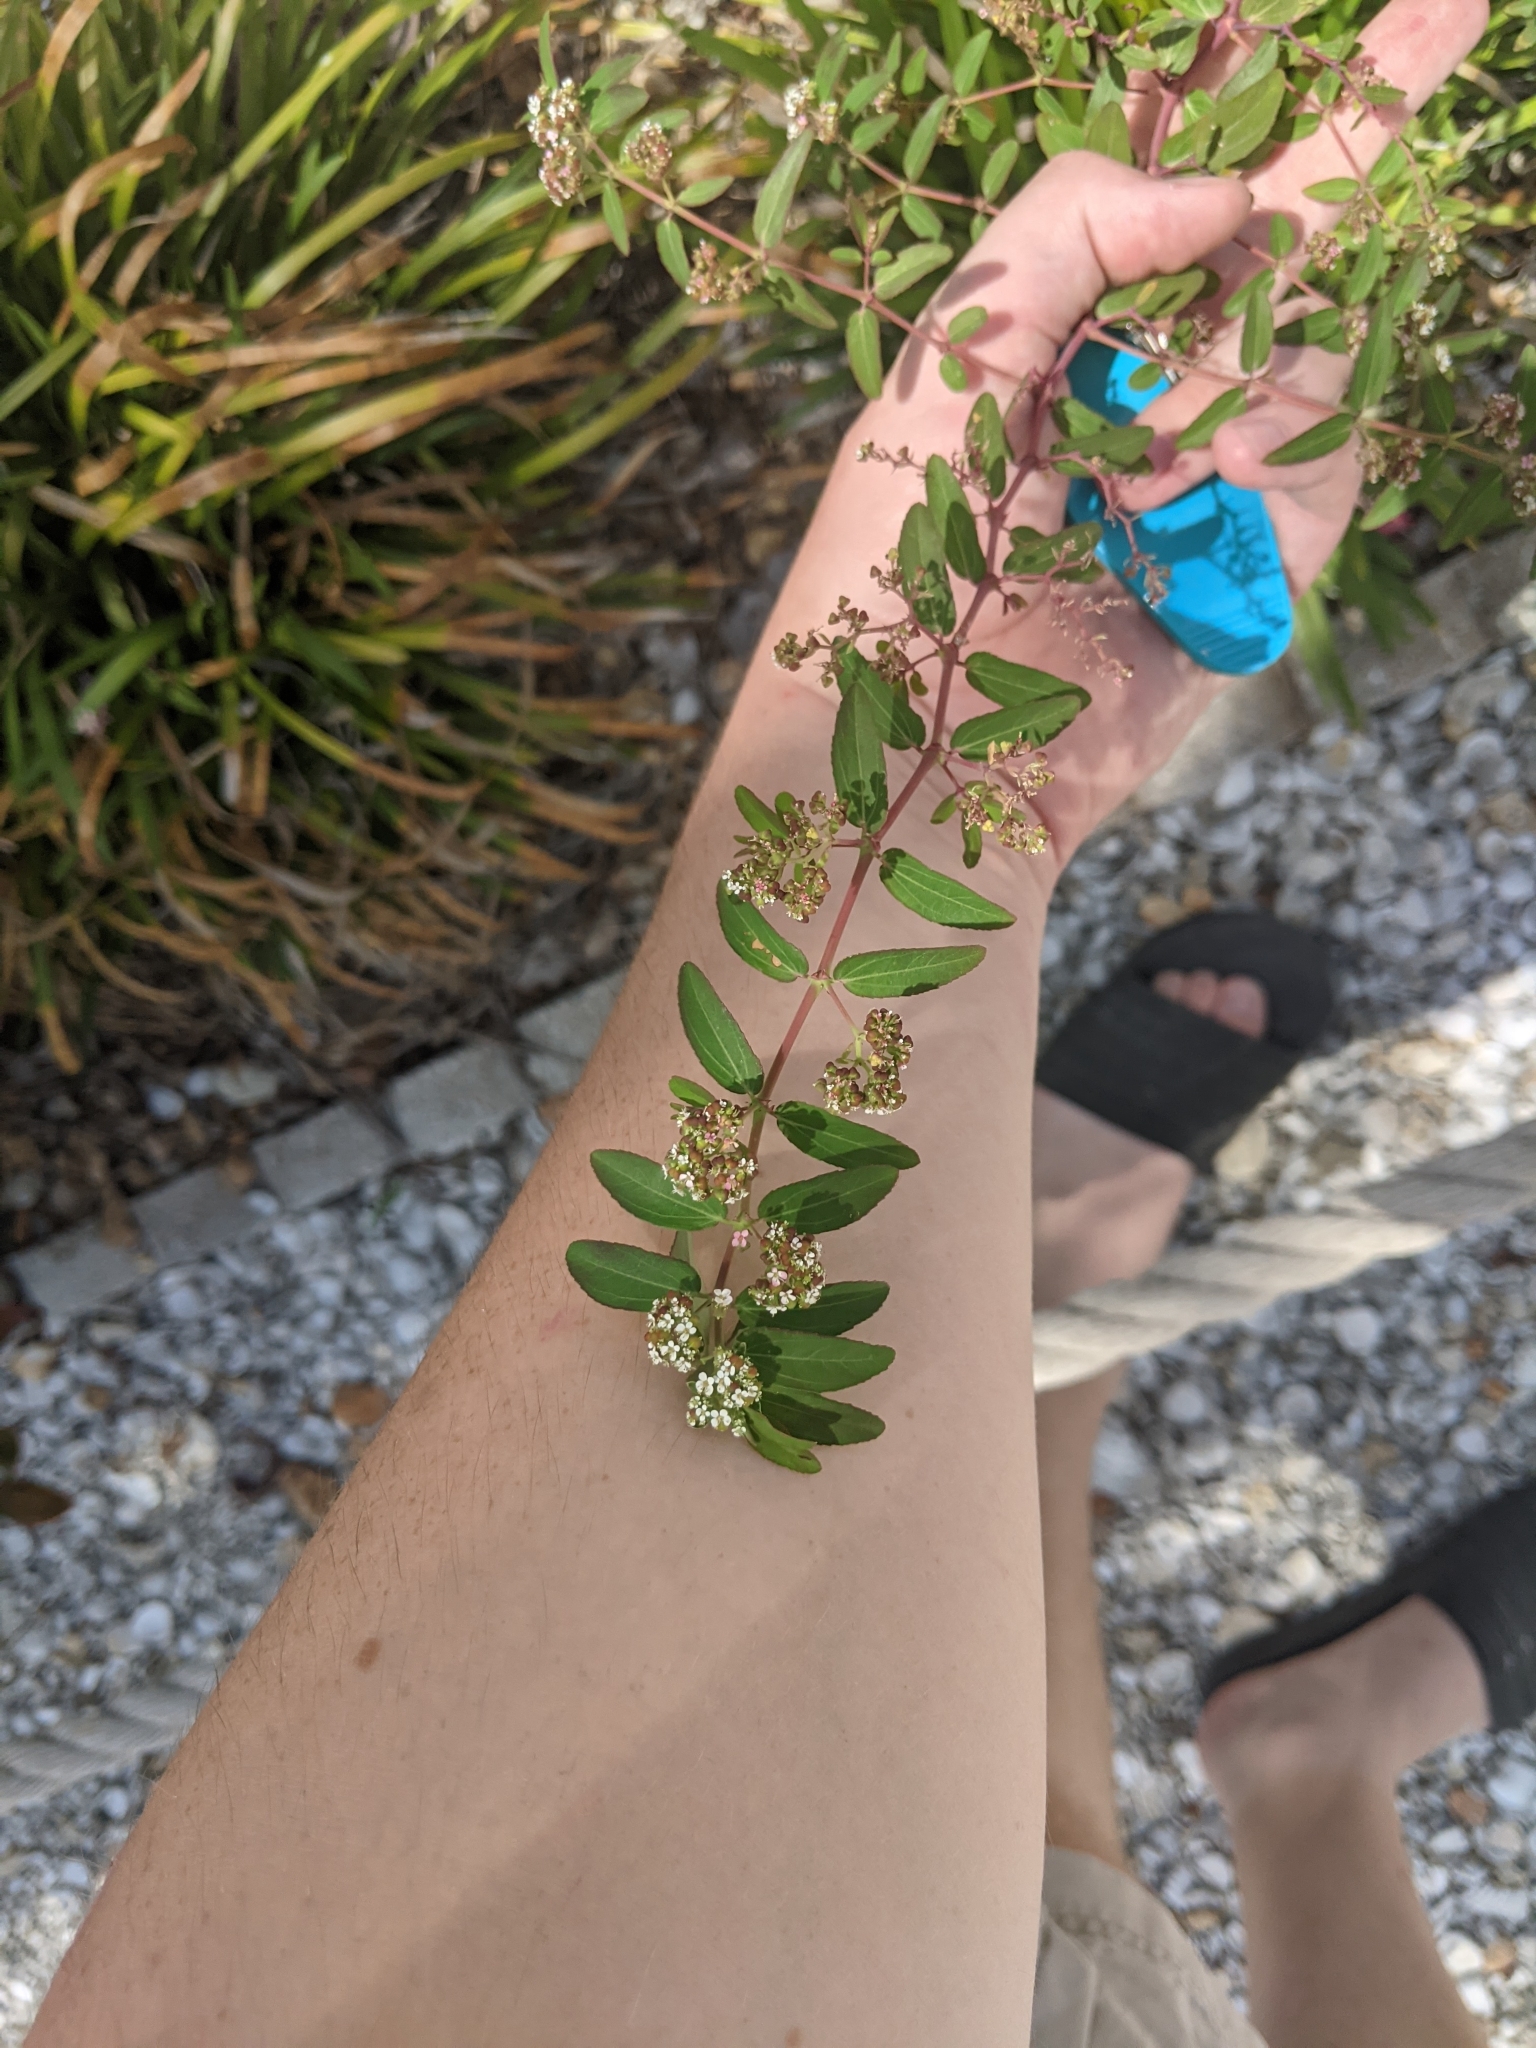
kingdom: Plantae
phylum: Tracheophyta
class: Magnoliopsida
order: Malpighiales
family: Euphorbiaceae
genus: Euphorbia
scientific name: Euphorbia hypericifolia
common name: Graceful sandmat
